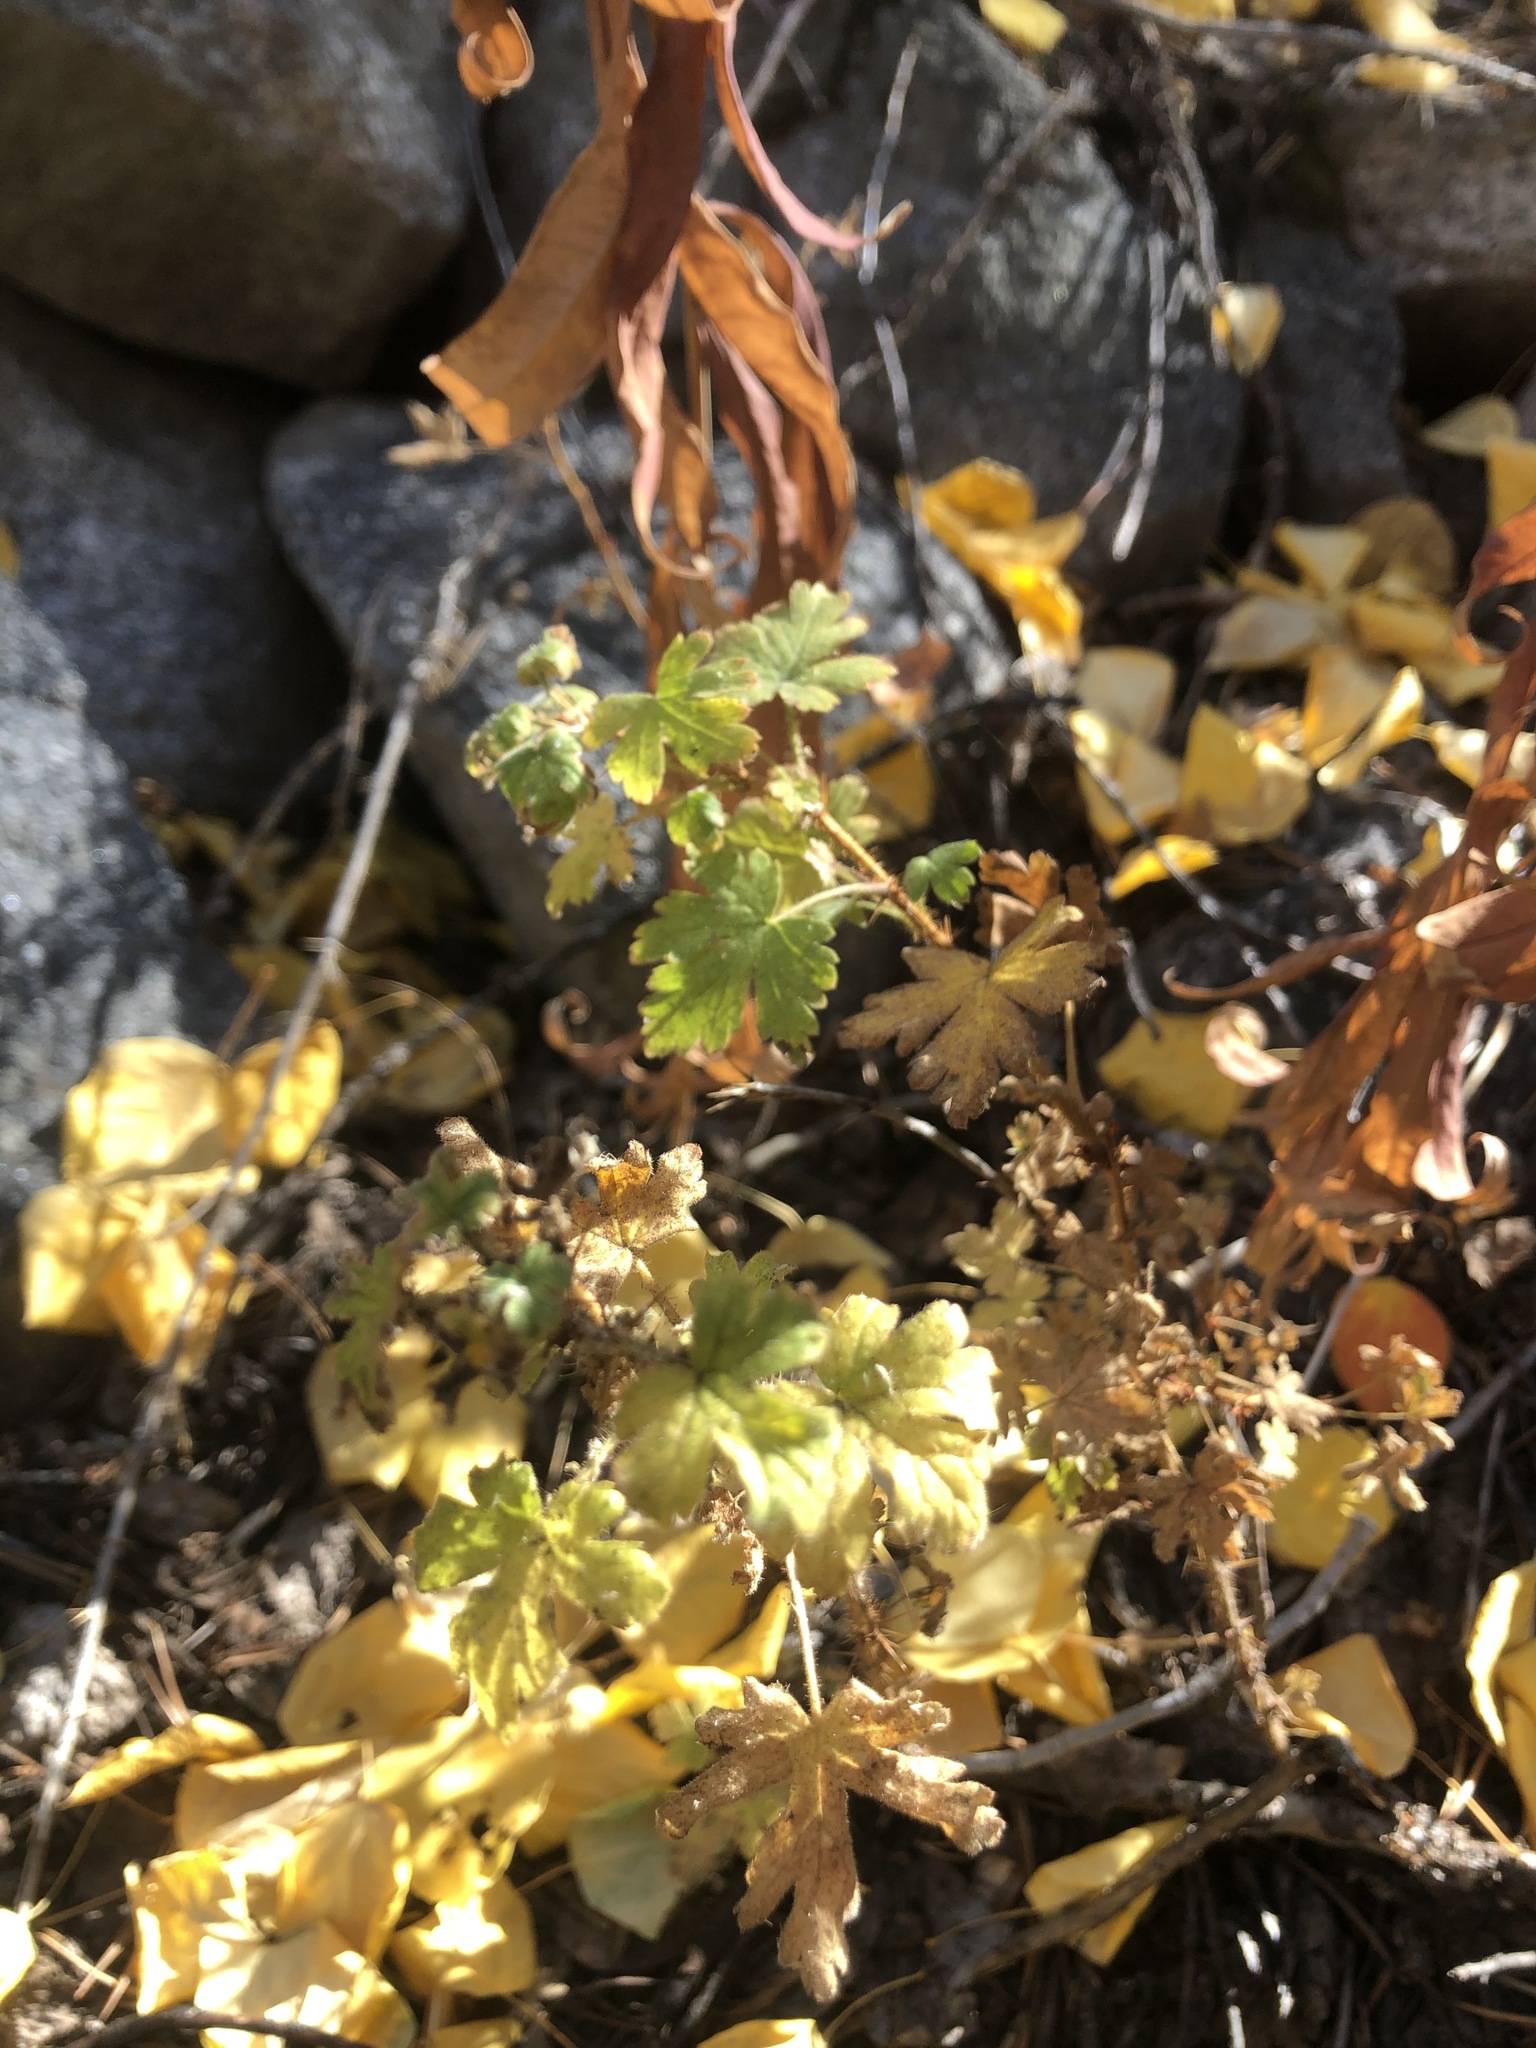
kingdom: Plantae
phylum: Tracheophyta
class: Magnoliopsida
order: Saxifragales
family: Grossulariaceae
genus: Ribes
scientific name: Ribes montigenum
